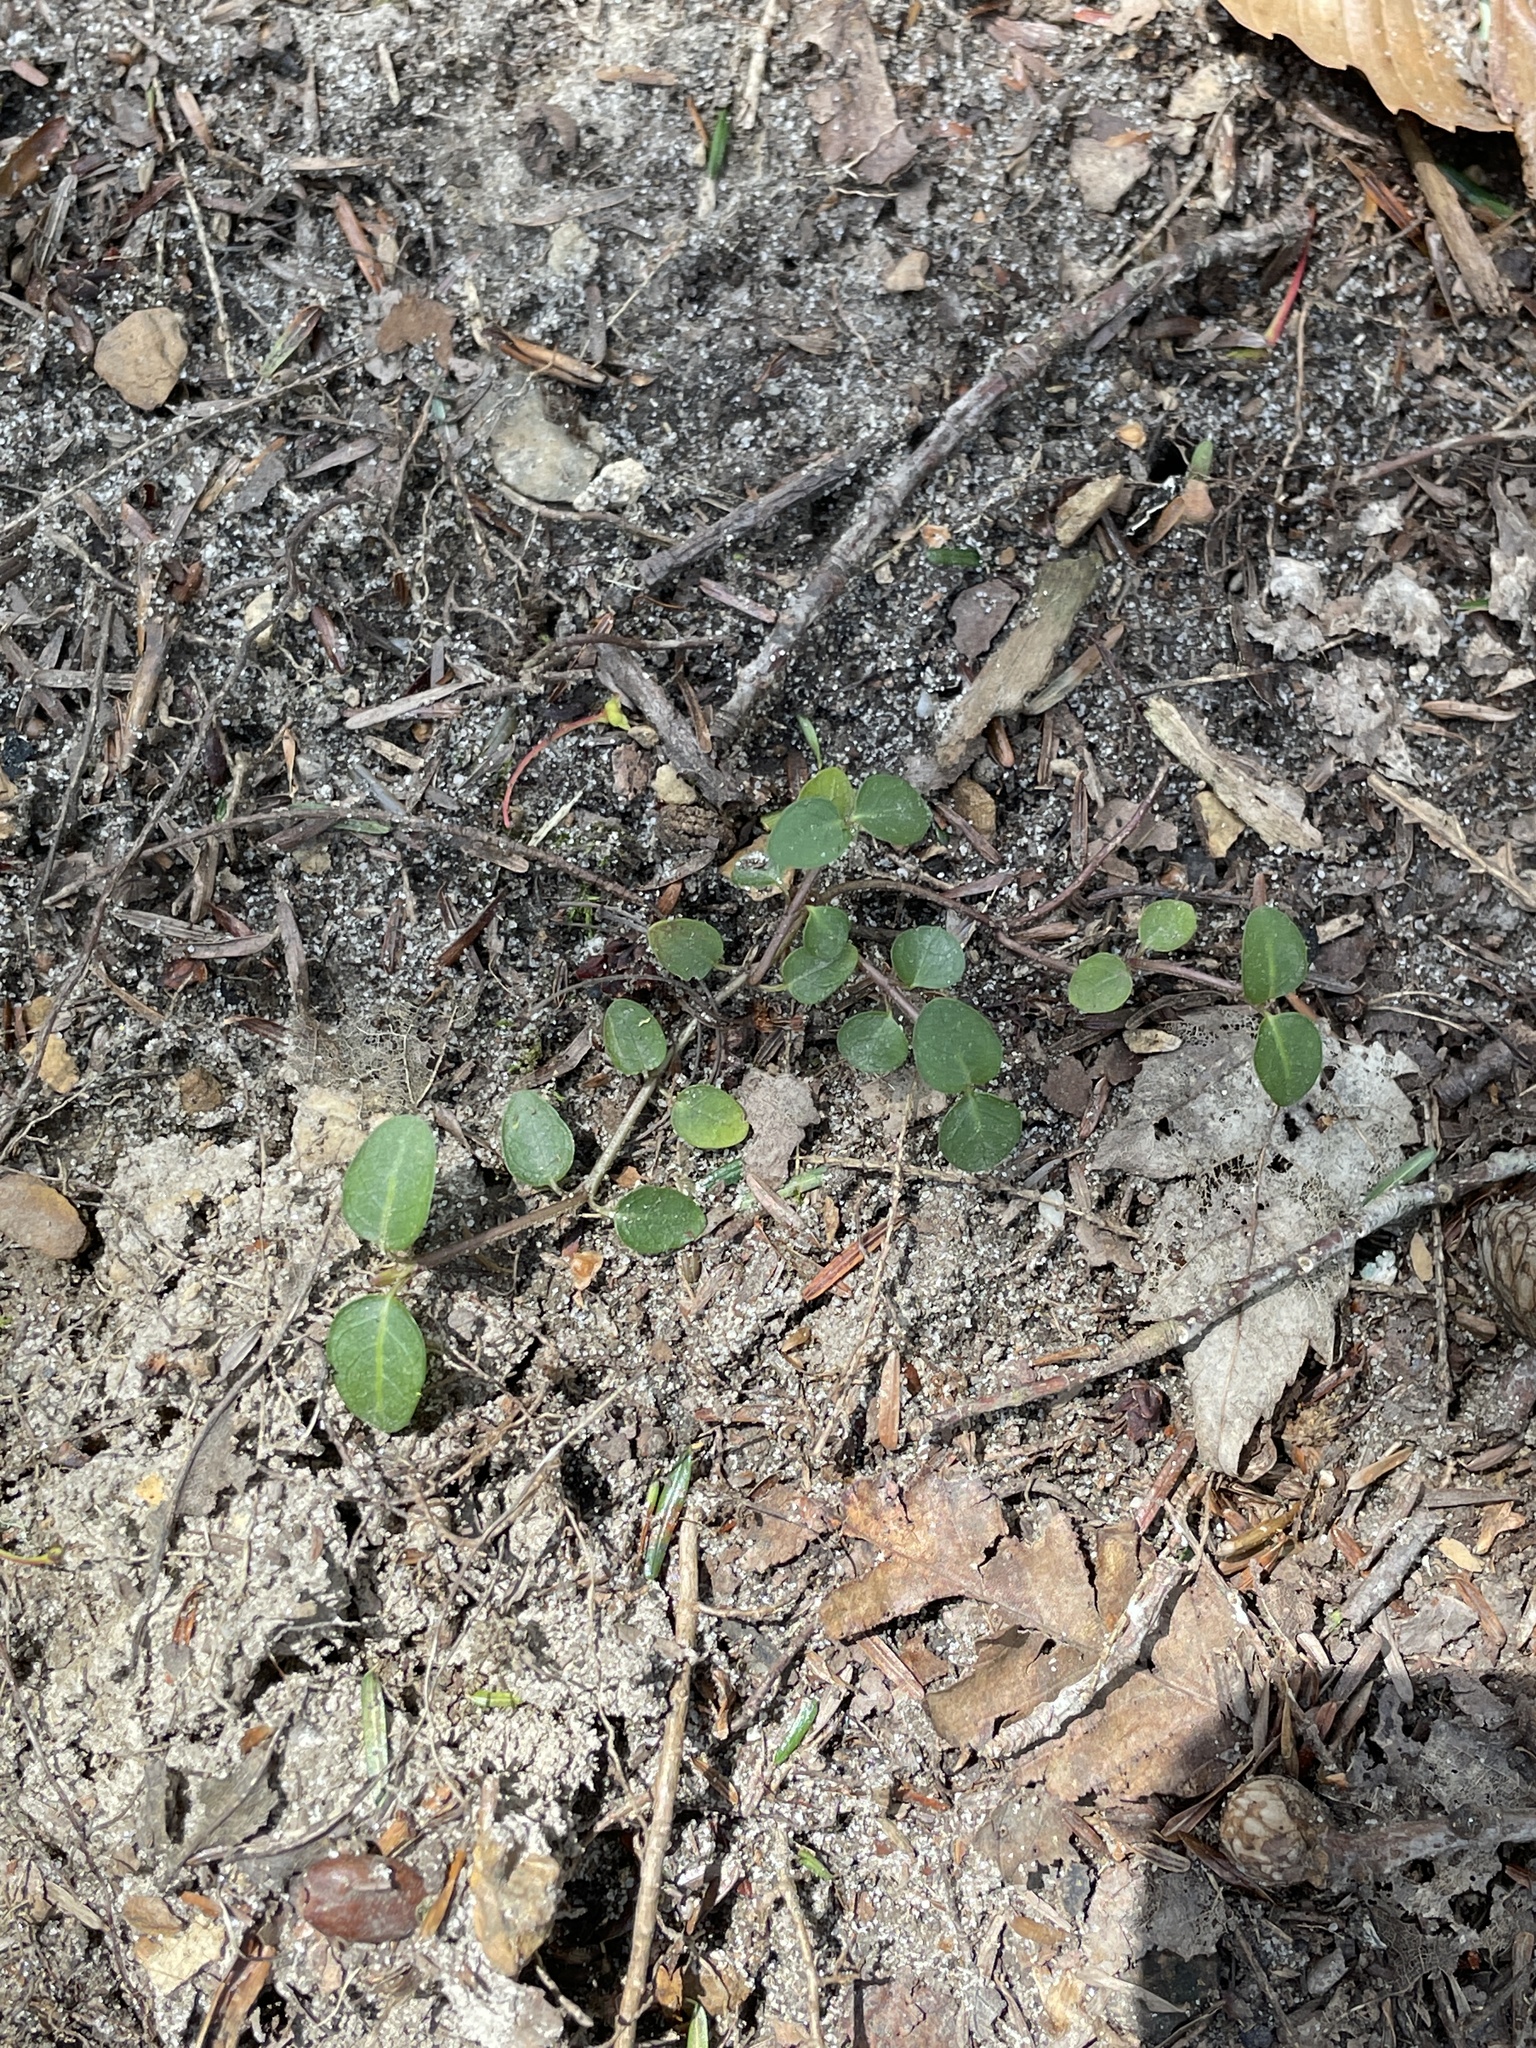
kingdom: Plantae
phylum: Tracheophyta
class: Magnoliopsida
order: Gentianales
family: Rubiaceae
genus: Mitchella
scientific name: Mitchella repens
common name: Partridge-berry
